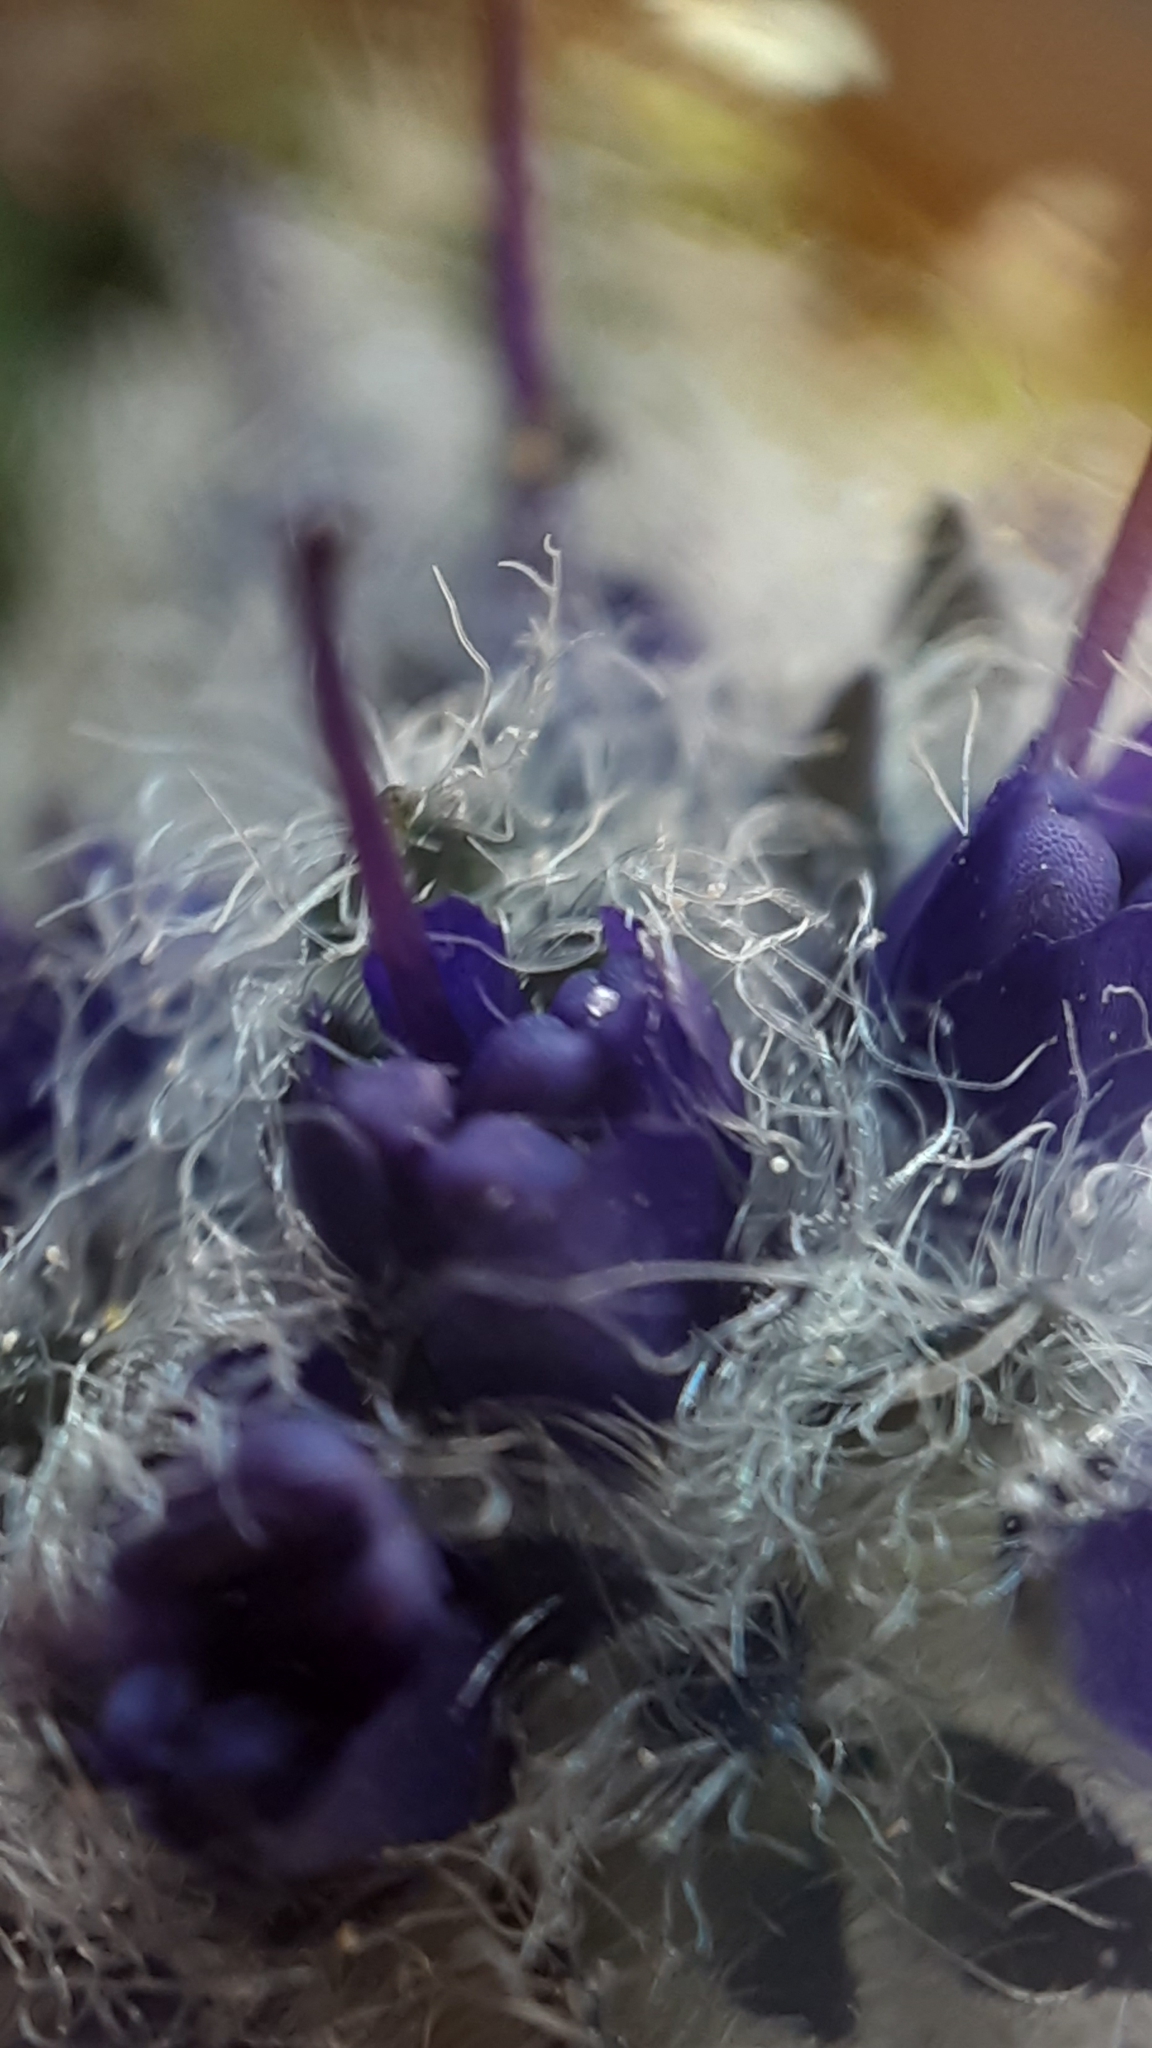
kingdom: Plantae
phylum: Tracheophyta
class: Magnoliopsida
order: Lamiales
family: Plantaginaceae
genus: Synthyris
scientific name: Synthyris borealis
